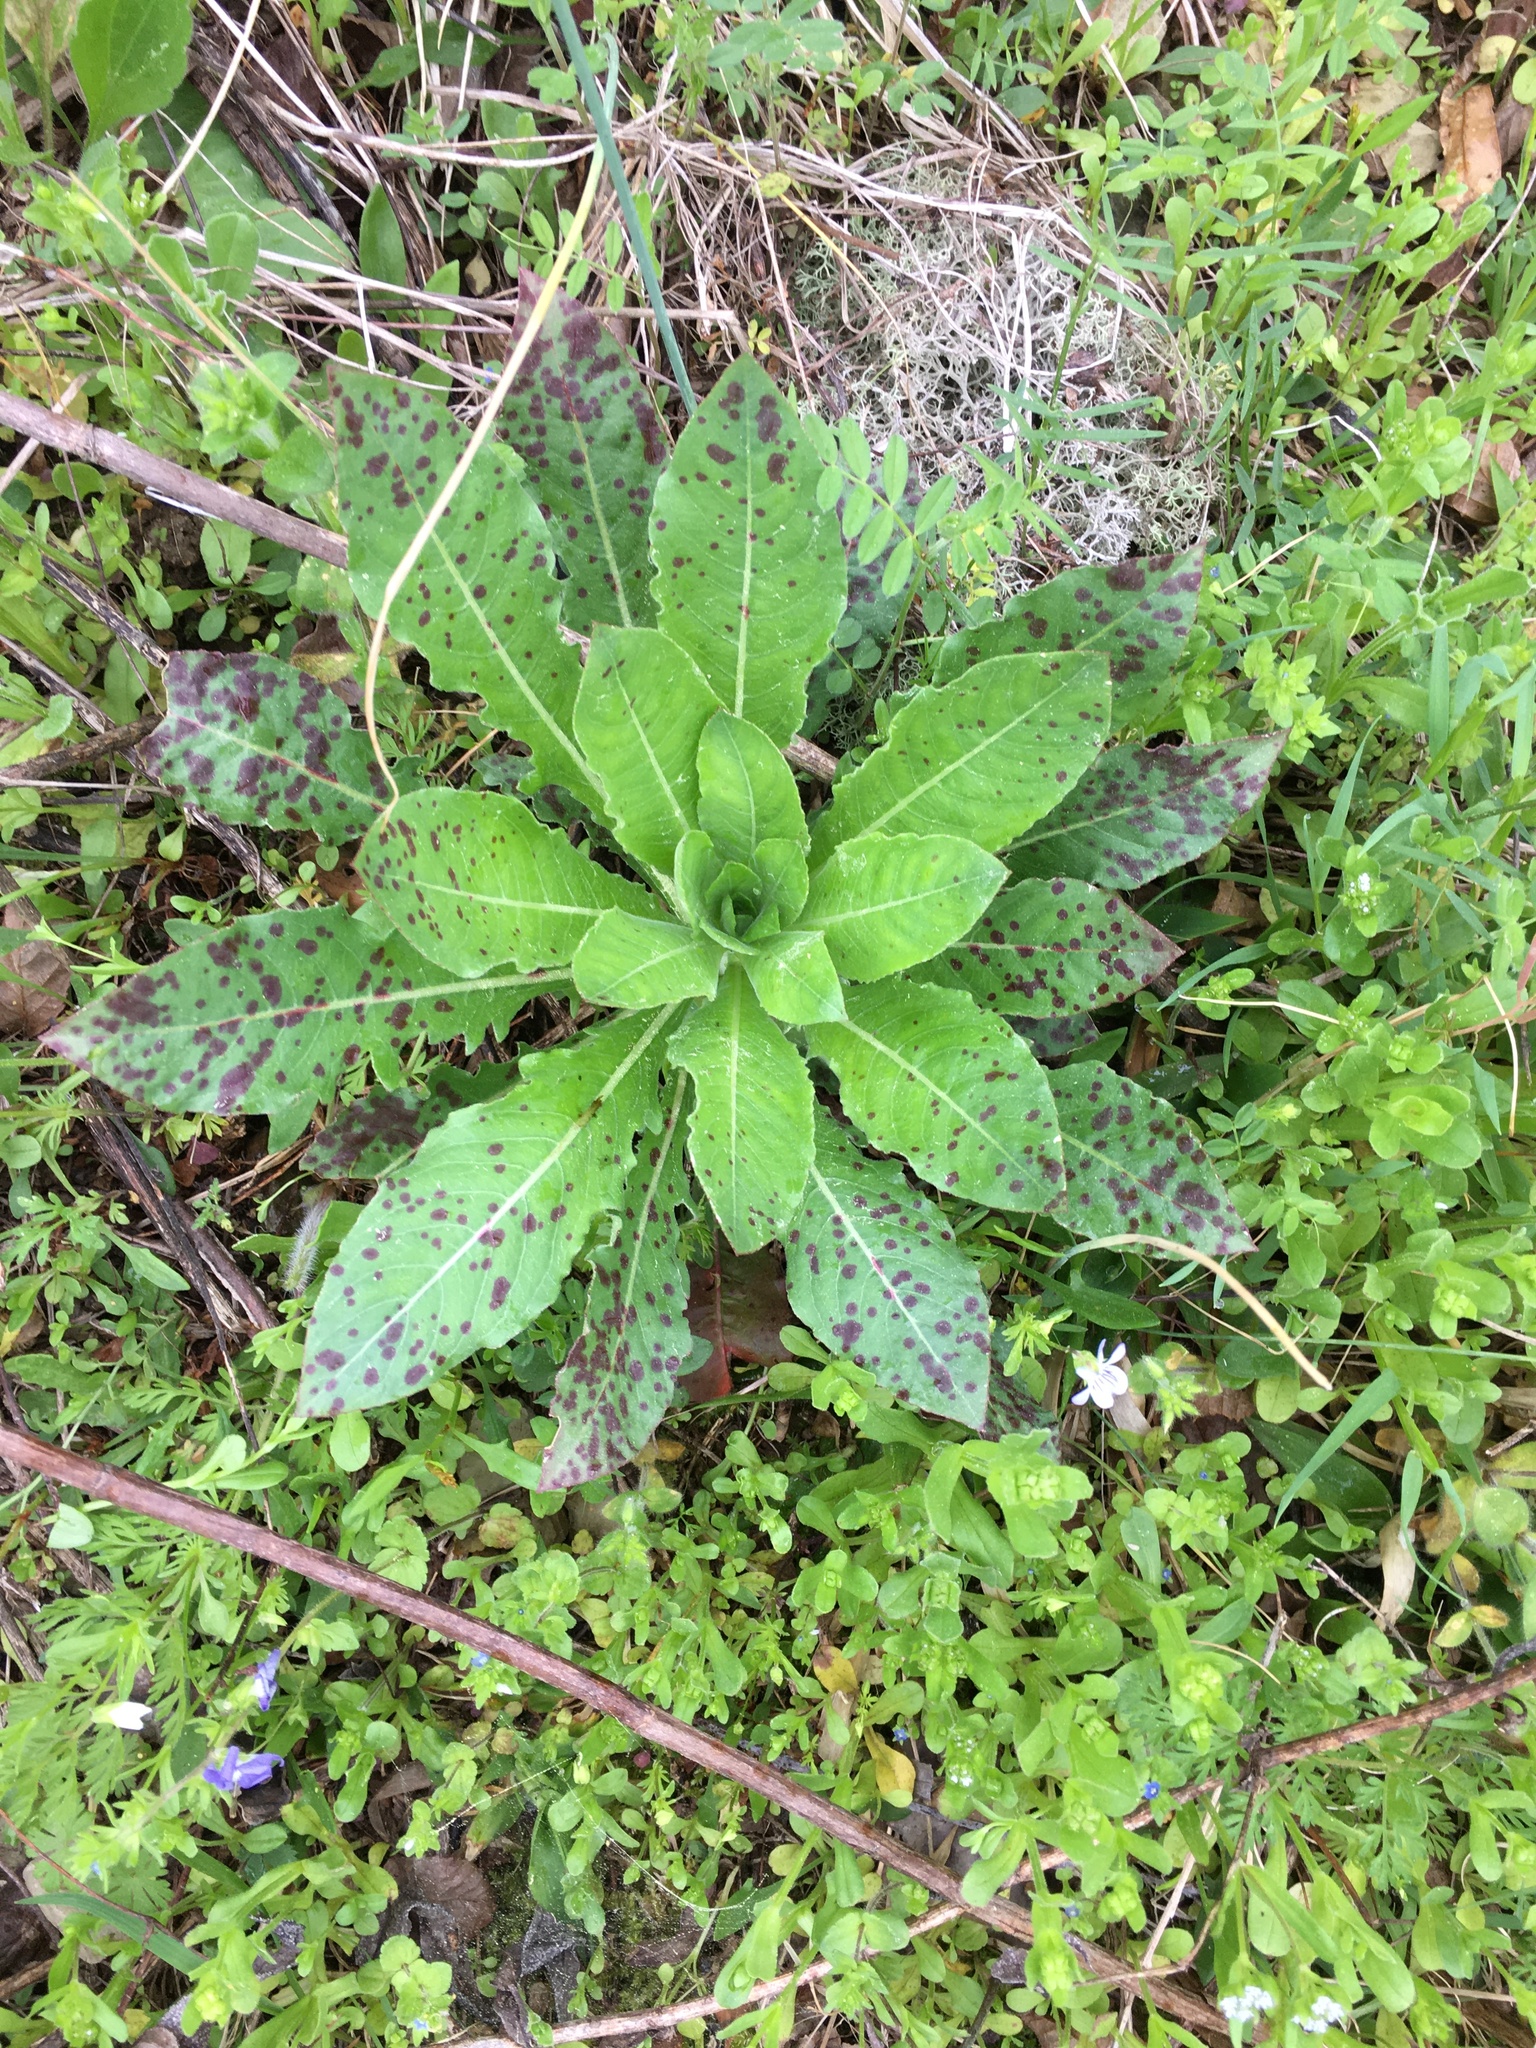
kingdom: Plantae
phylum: Tracheophyta
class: Magnoliopsida
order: Myrtales
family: Onagraceae
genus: Oenothera
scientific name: Oenothera biennis
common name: Common evening-primrose
